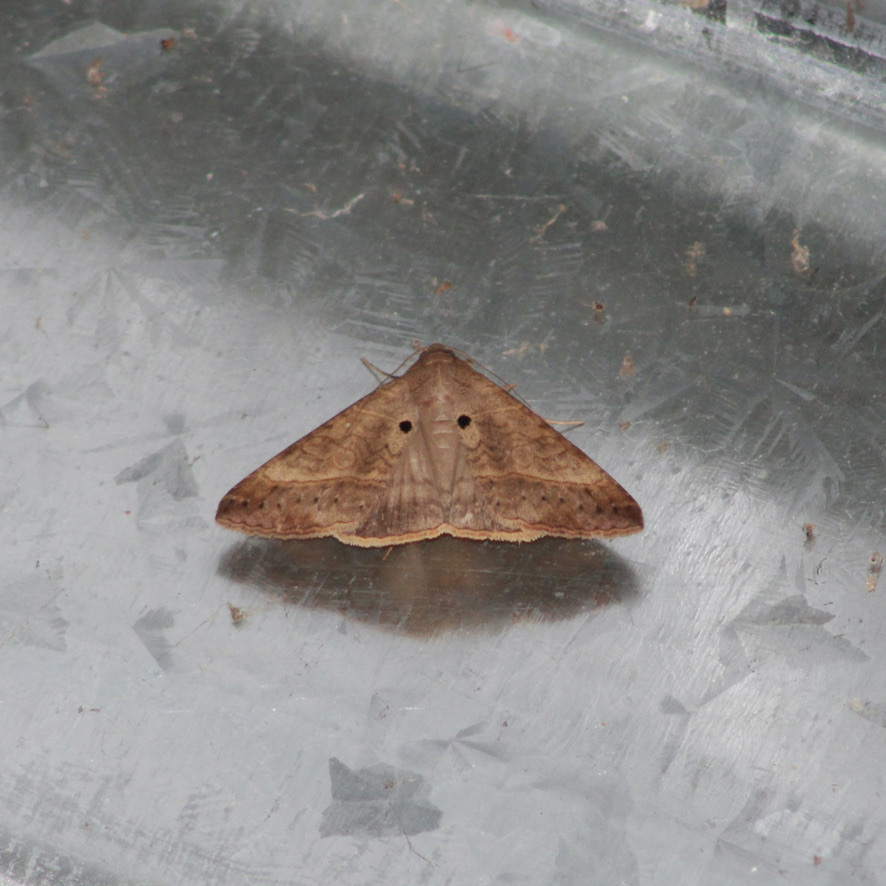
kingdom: Animalia
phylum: Arthropoda
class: Insecta
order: Lepidoptera
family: Erebidae
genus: Mocis
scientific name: Mocis latipes
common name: Striped grass looper
